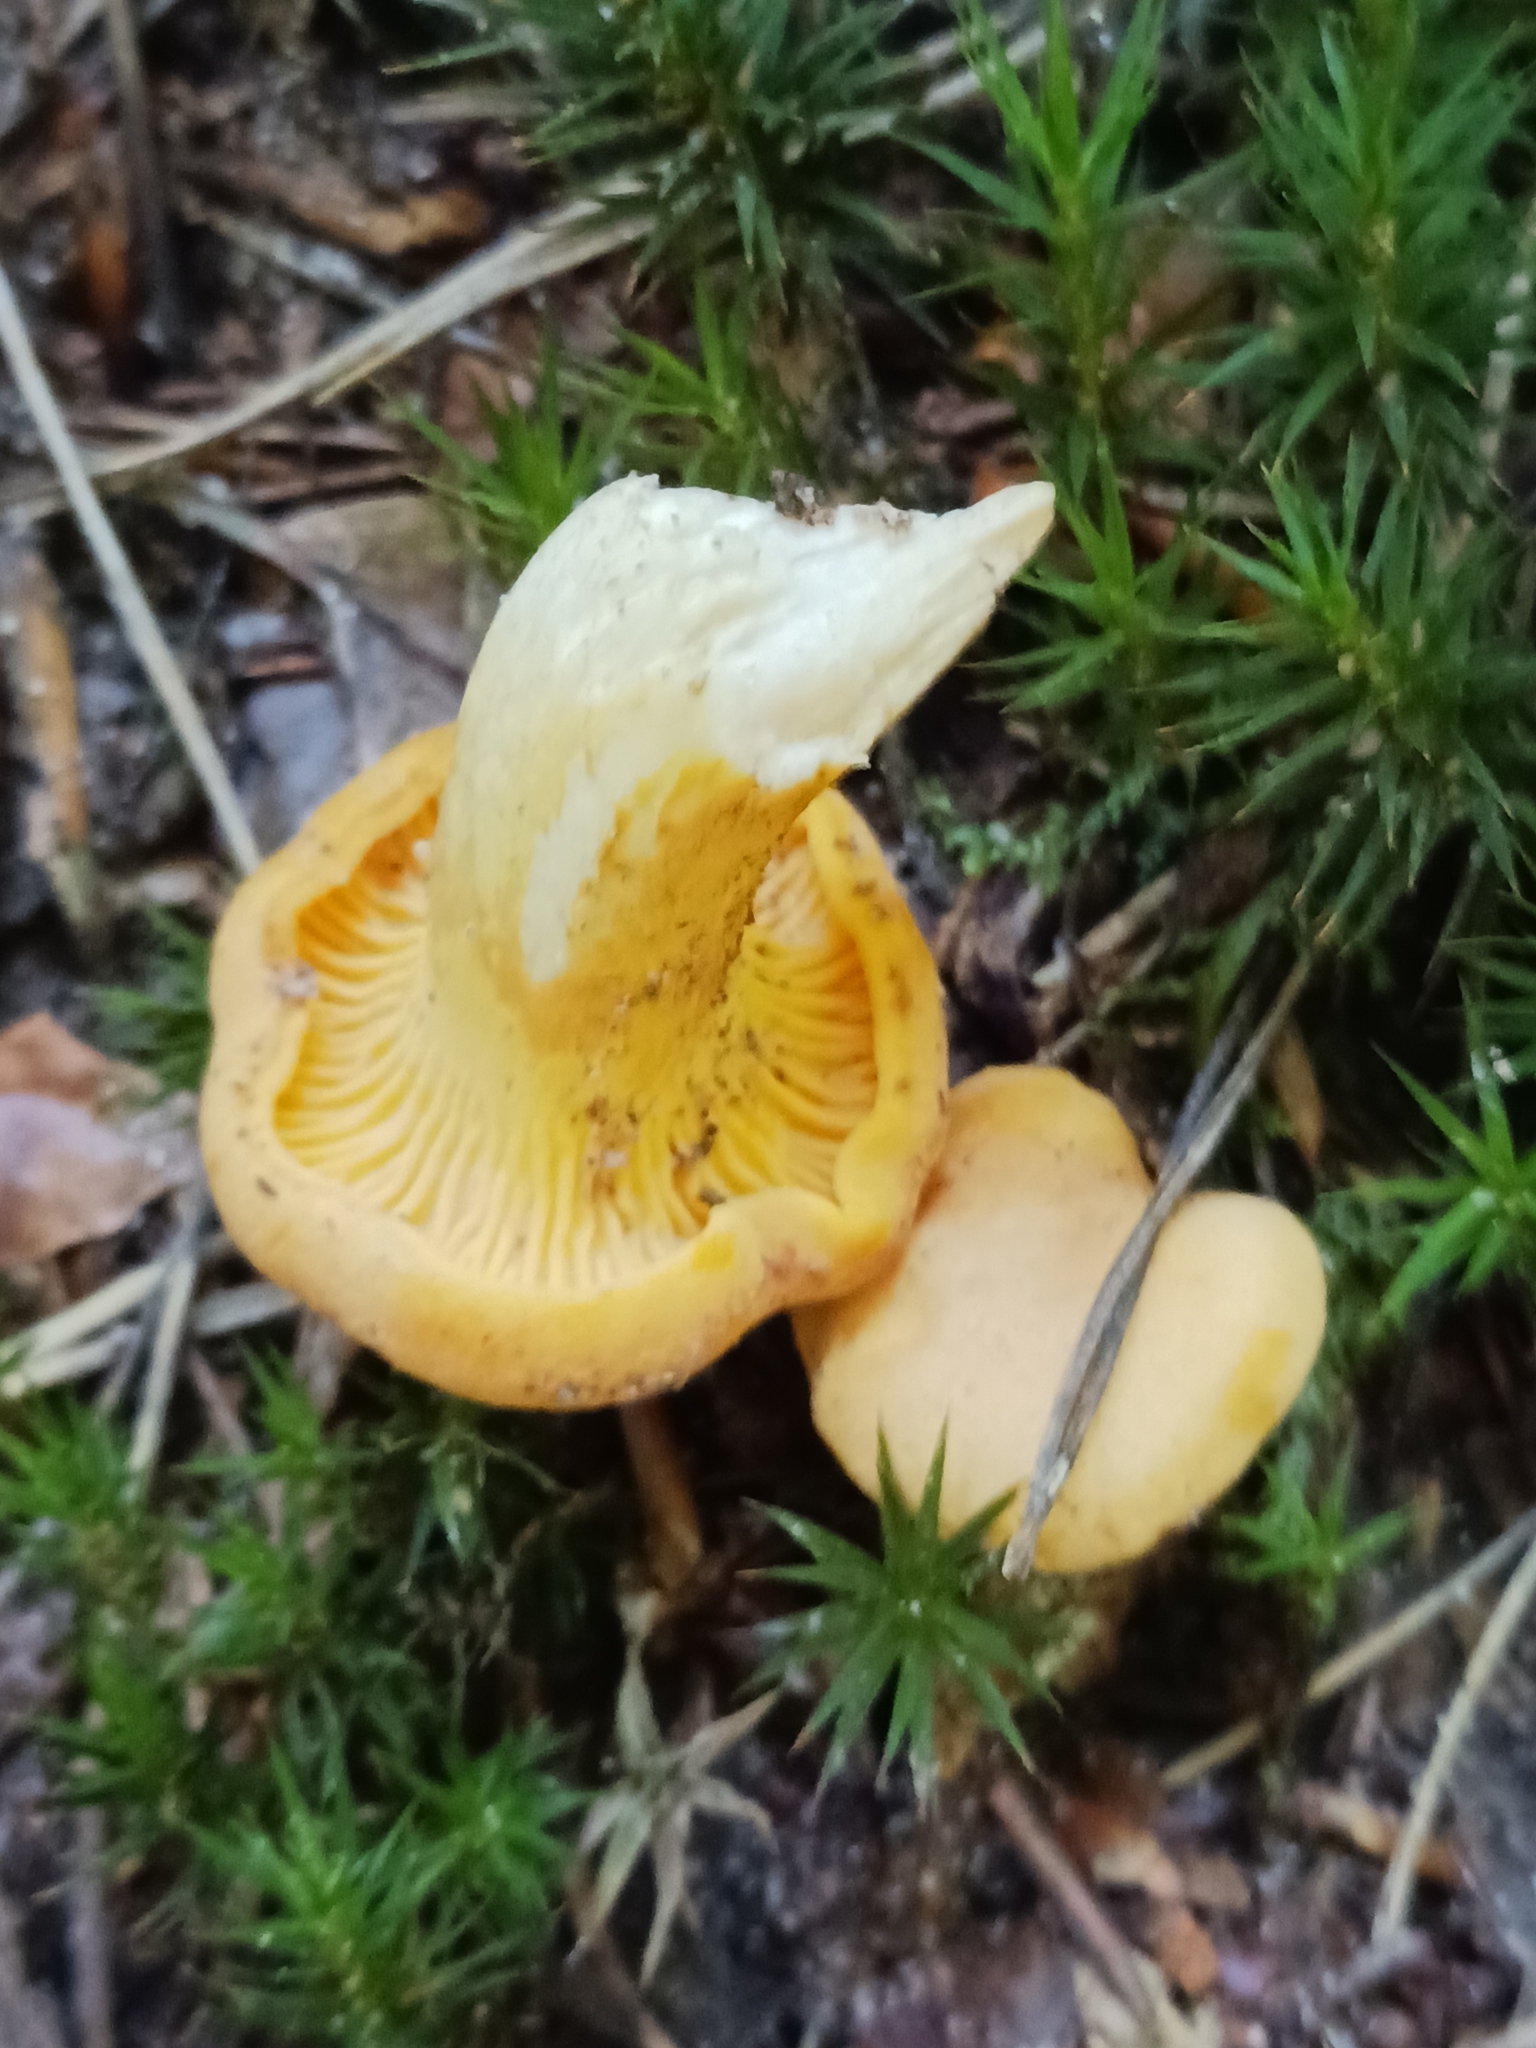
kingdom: Fungi
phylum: Basidiomycota
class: Agaricomycetes
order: Cantharellales
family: Hydnaceae
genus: Cantharellus
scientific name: Cantharellus cibarius
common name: Chanterelle
